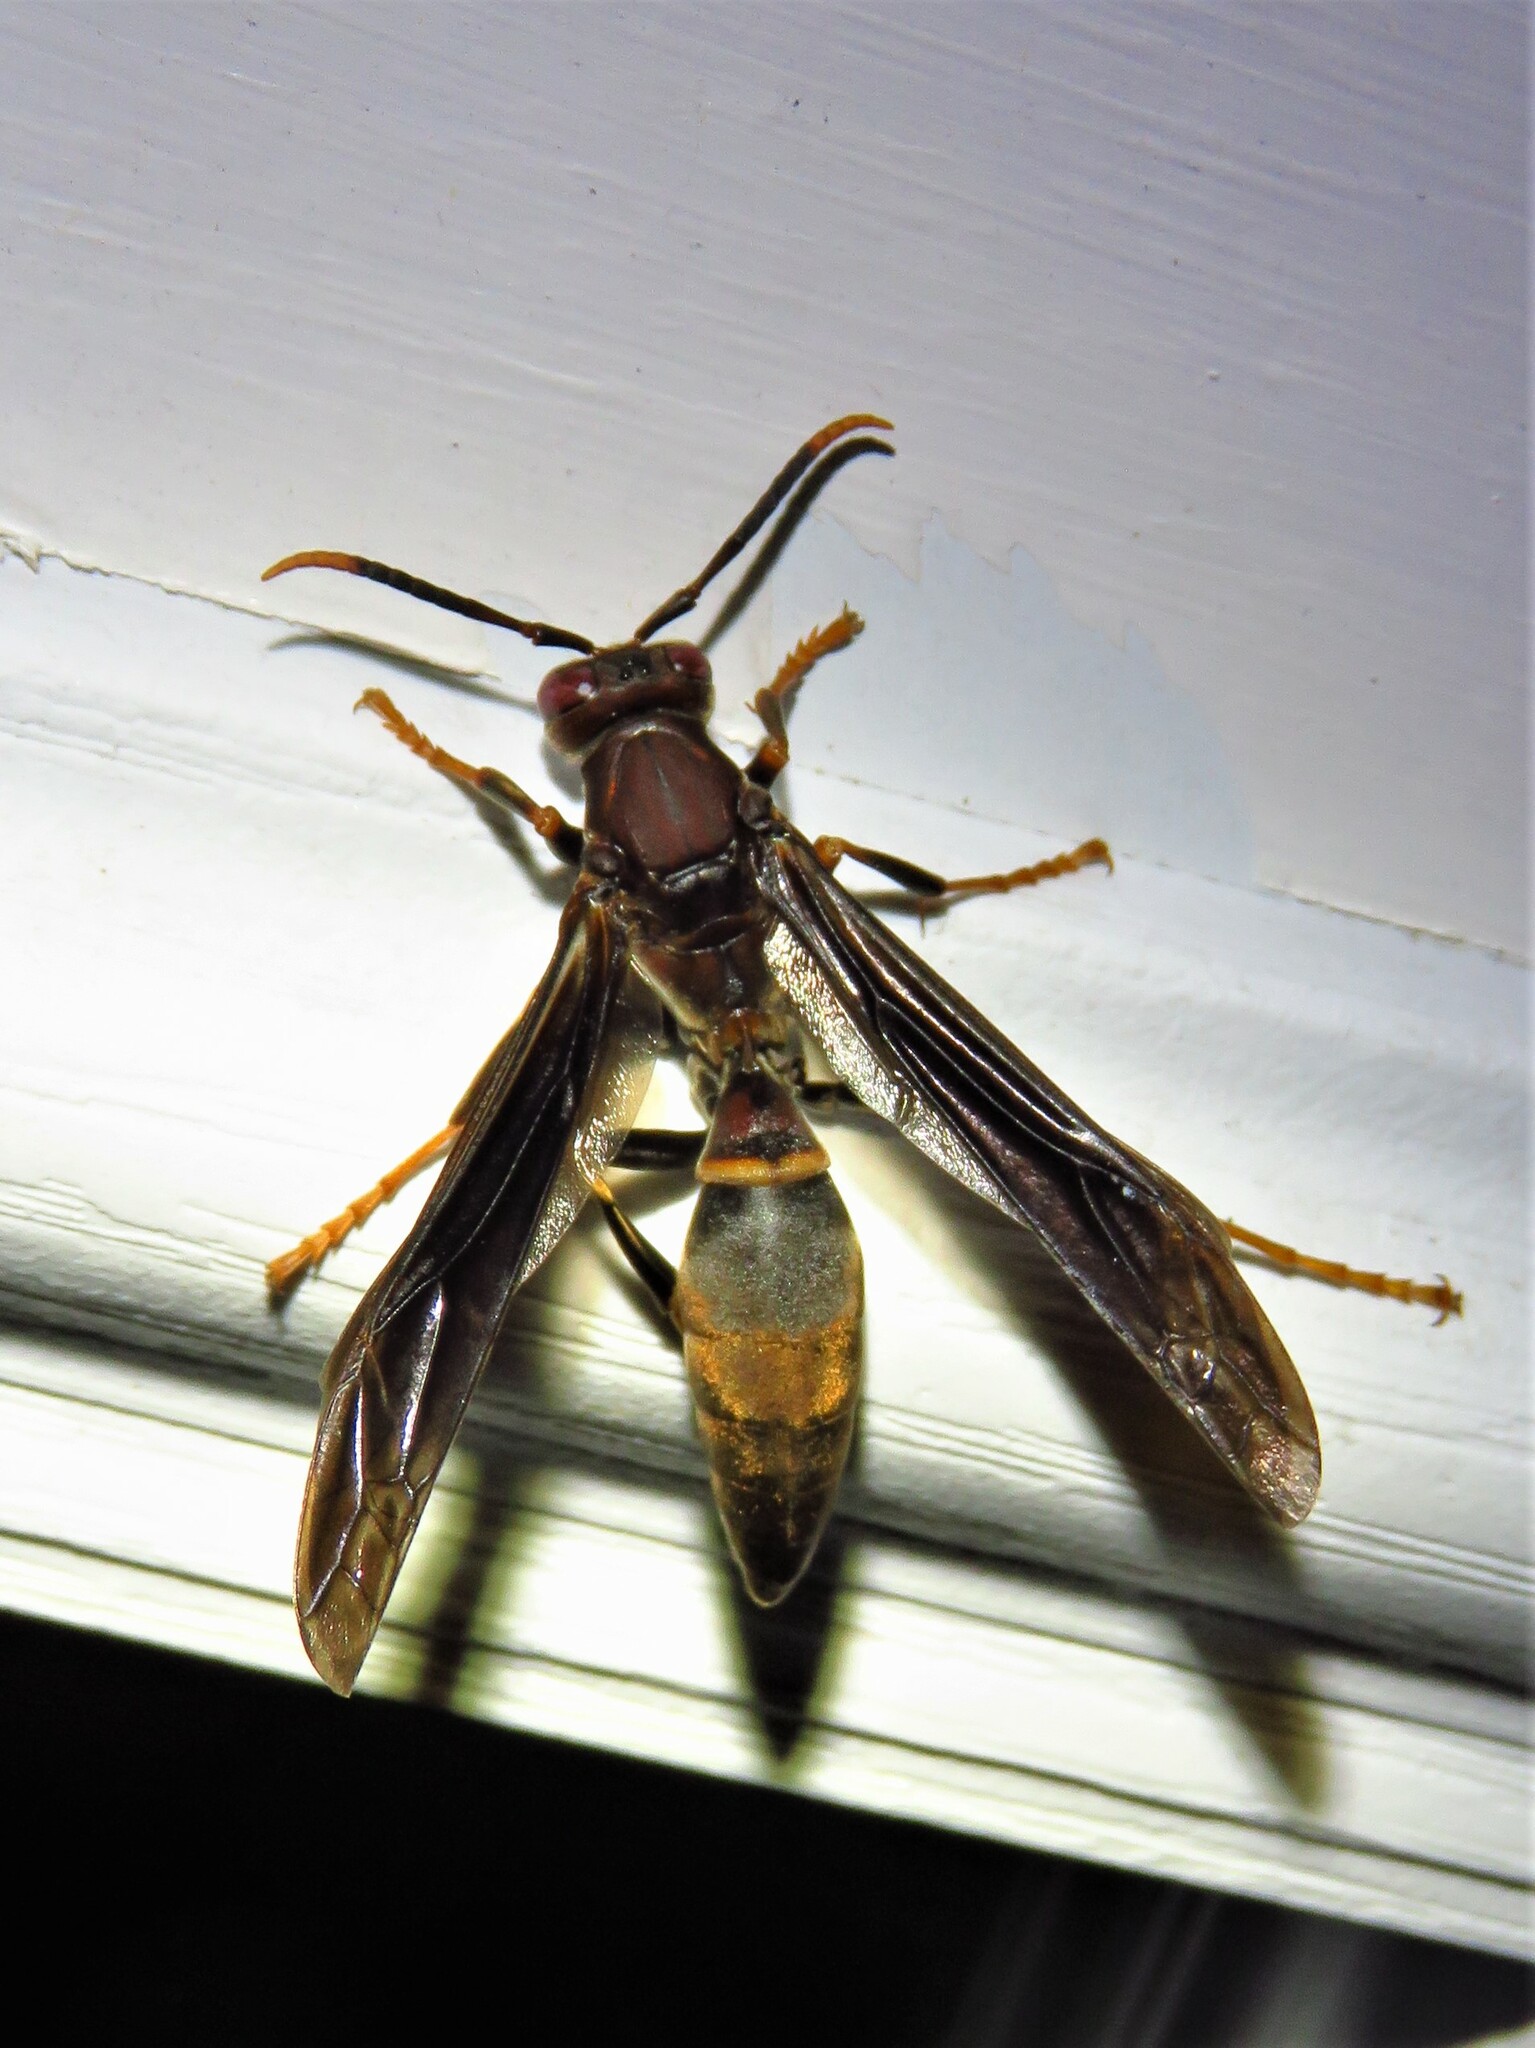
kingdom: Animalia
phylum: Arthropoda
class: Insecta
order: Hymenoptera
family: Eumenidae
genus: Polistes
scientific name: Polistes annularis
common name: Ringed paper wasp
